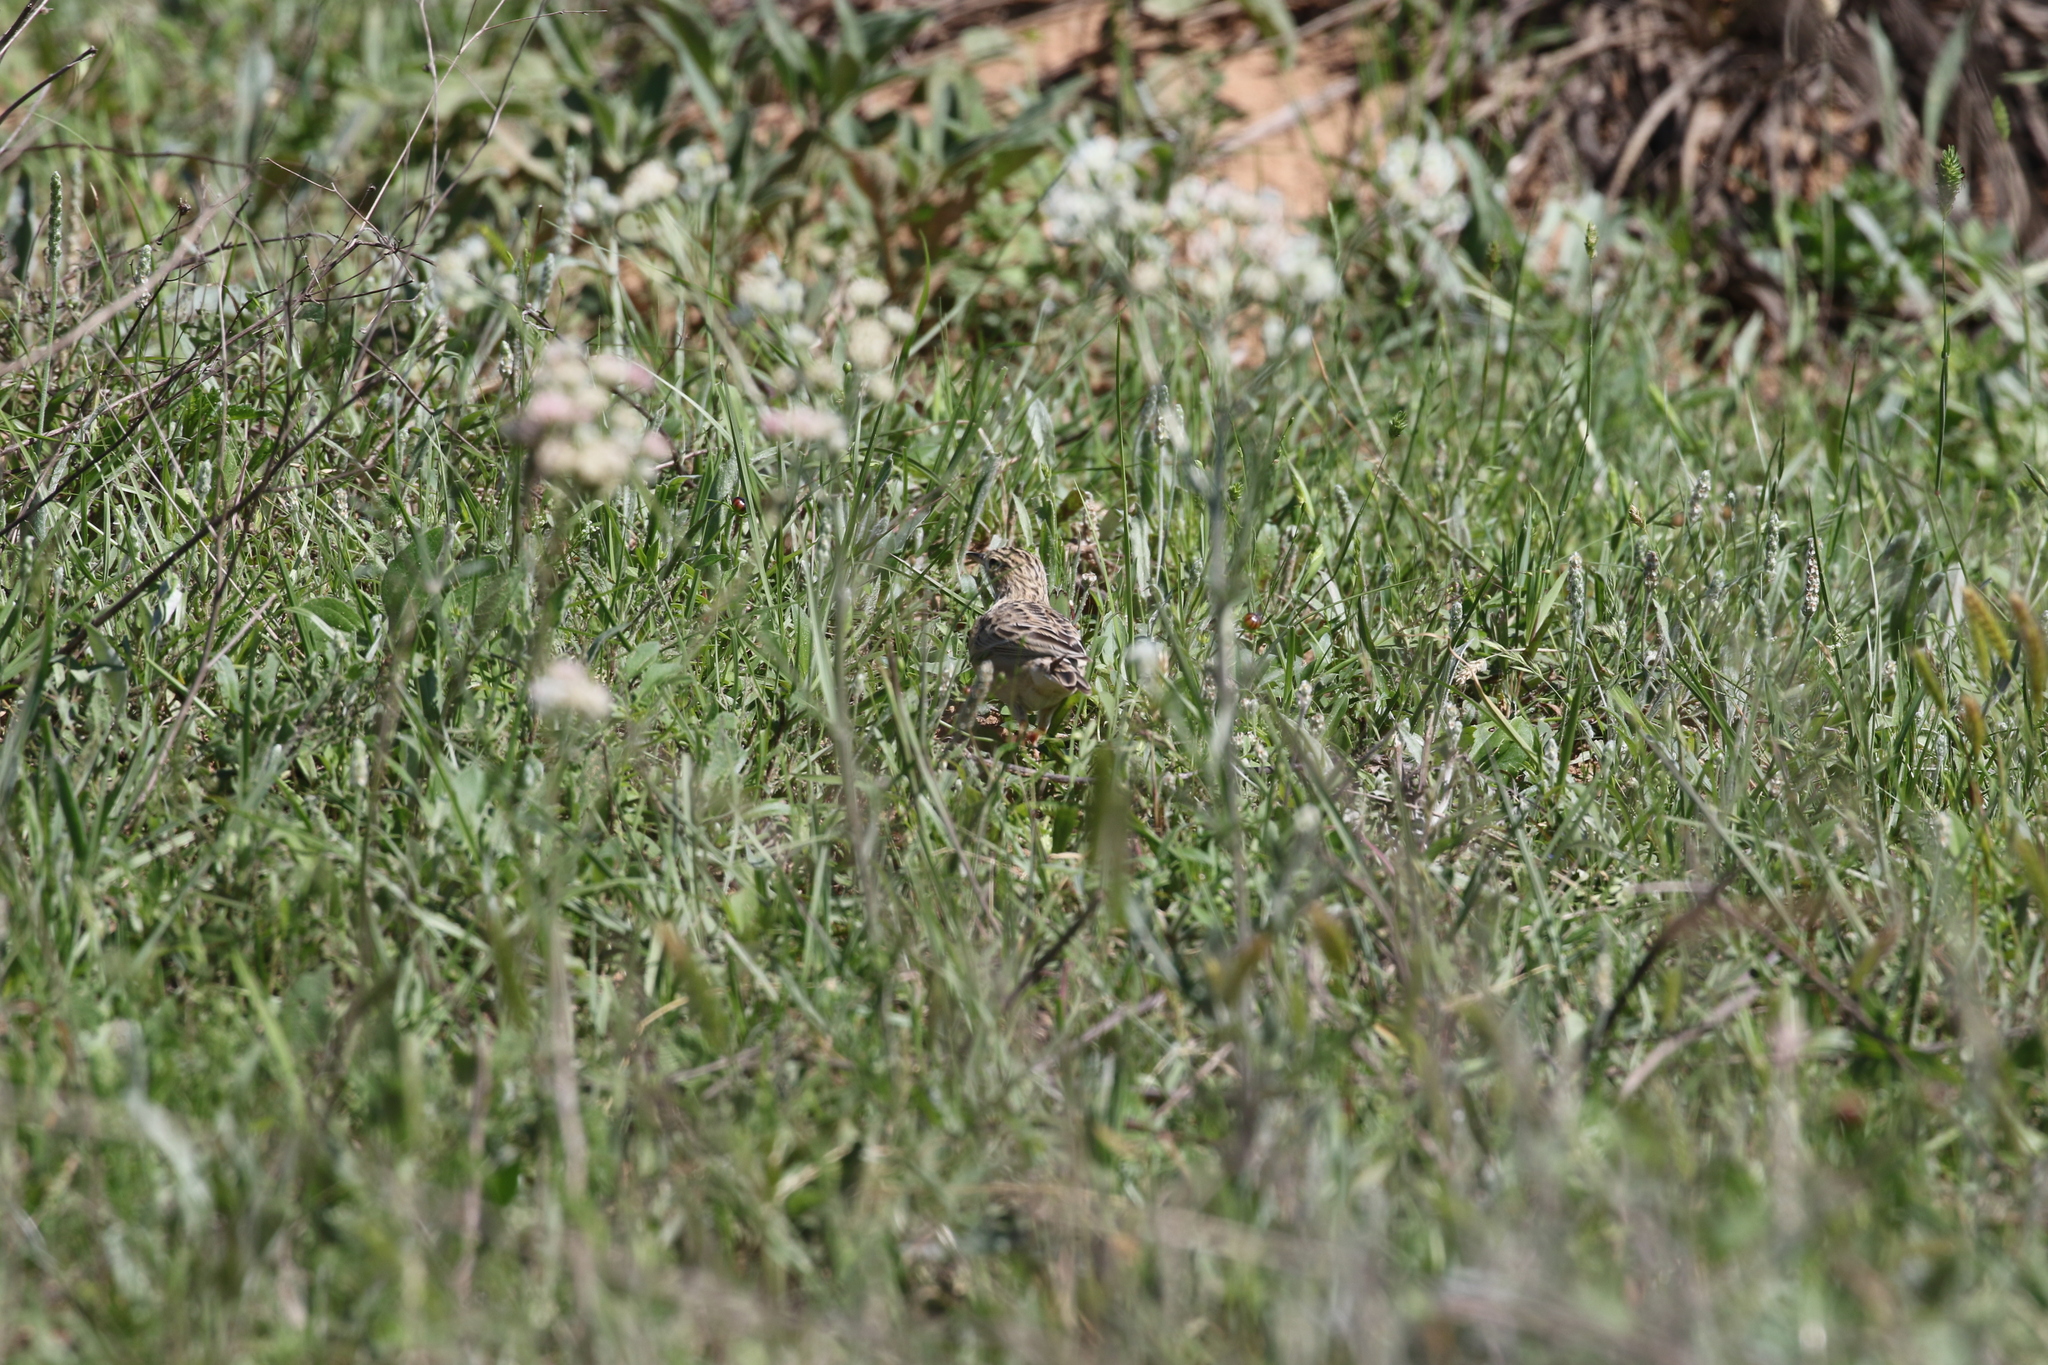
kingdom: Animalia
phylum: Chordata
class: Aves
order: Passeriformes
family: Motacillidae
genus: Anthus
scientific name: Anthus spragueii
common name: Sprague's pipit
